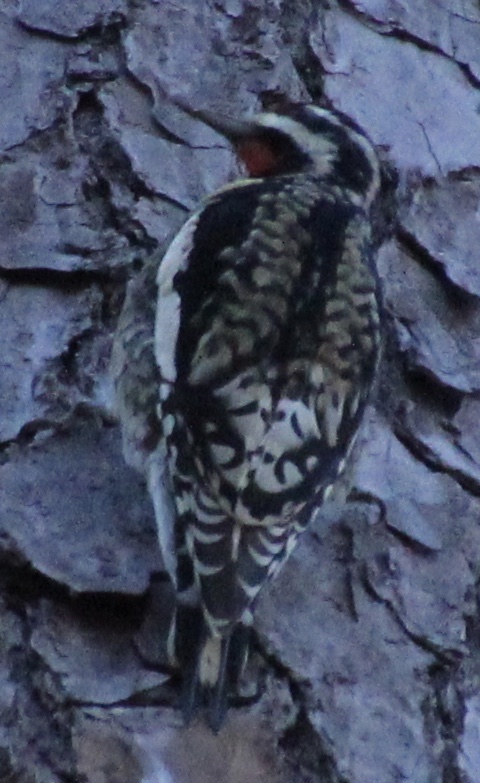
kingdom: Animalia
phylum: Chordata
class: Aves
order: Piciformes
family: Picidae
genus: Sphyrapicus
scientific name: Sphyrapicus varius
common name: Yellow-bellied sapsucker
